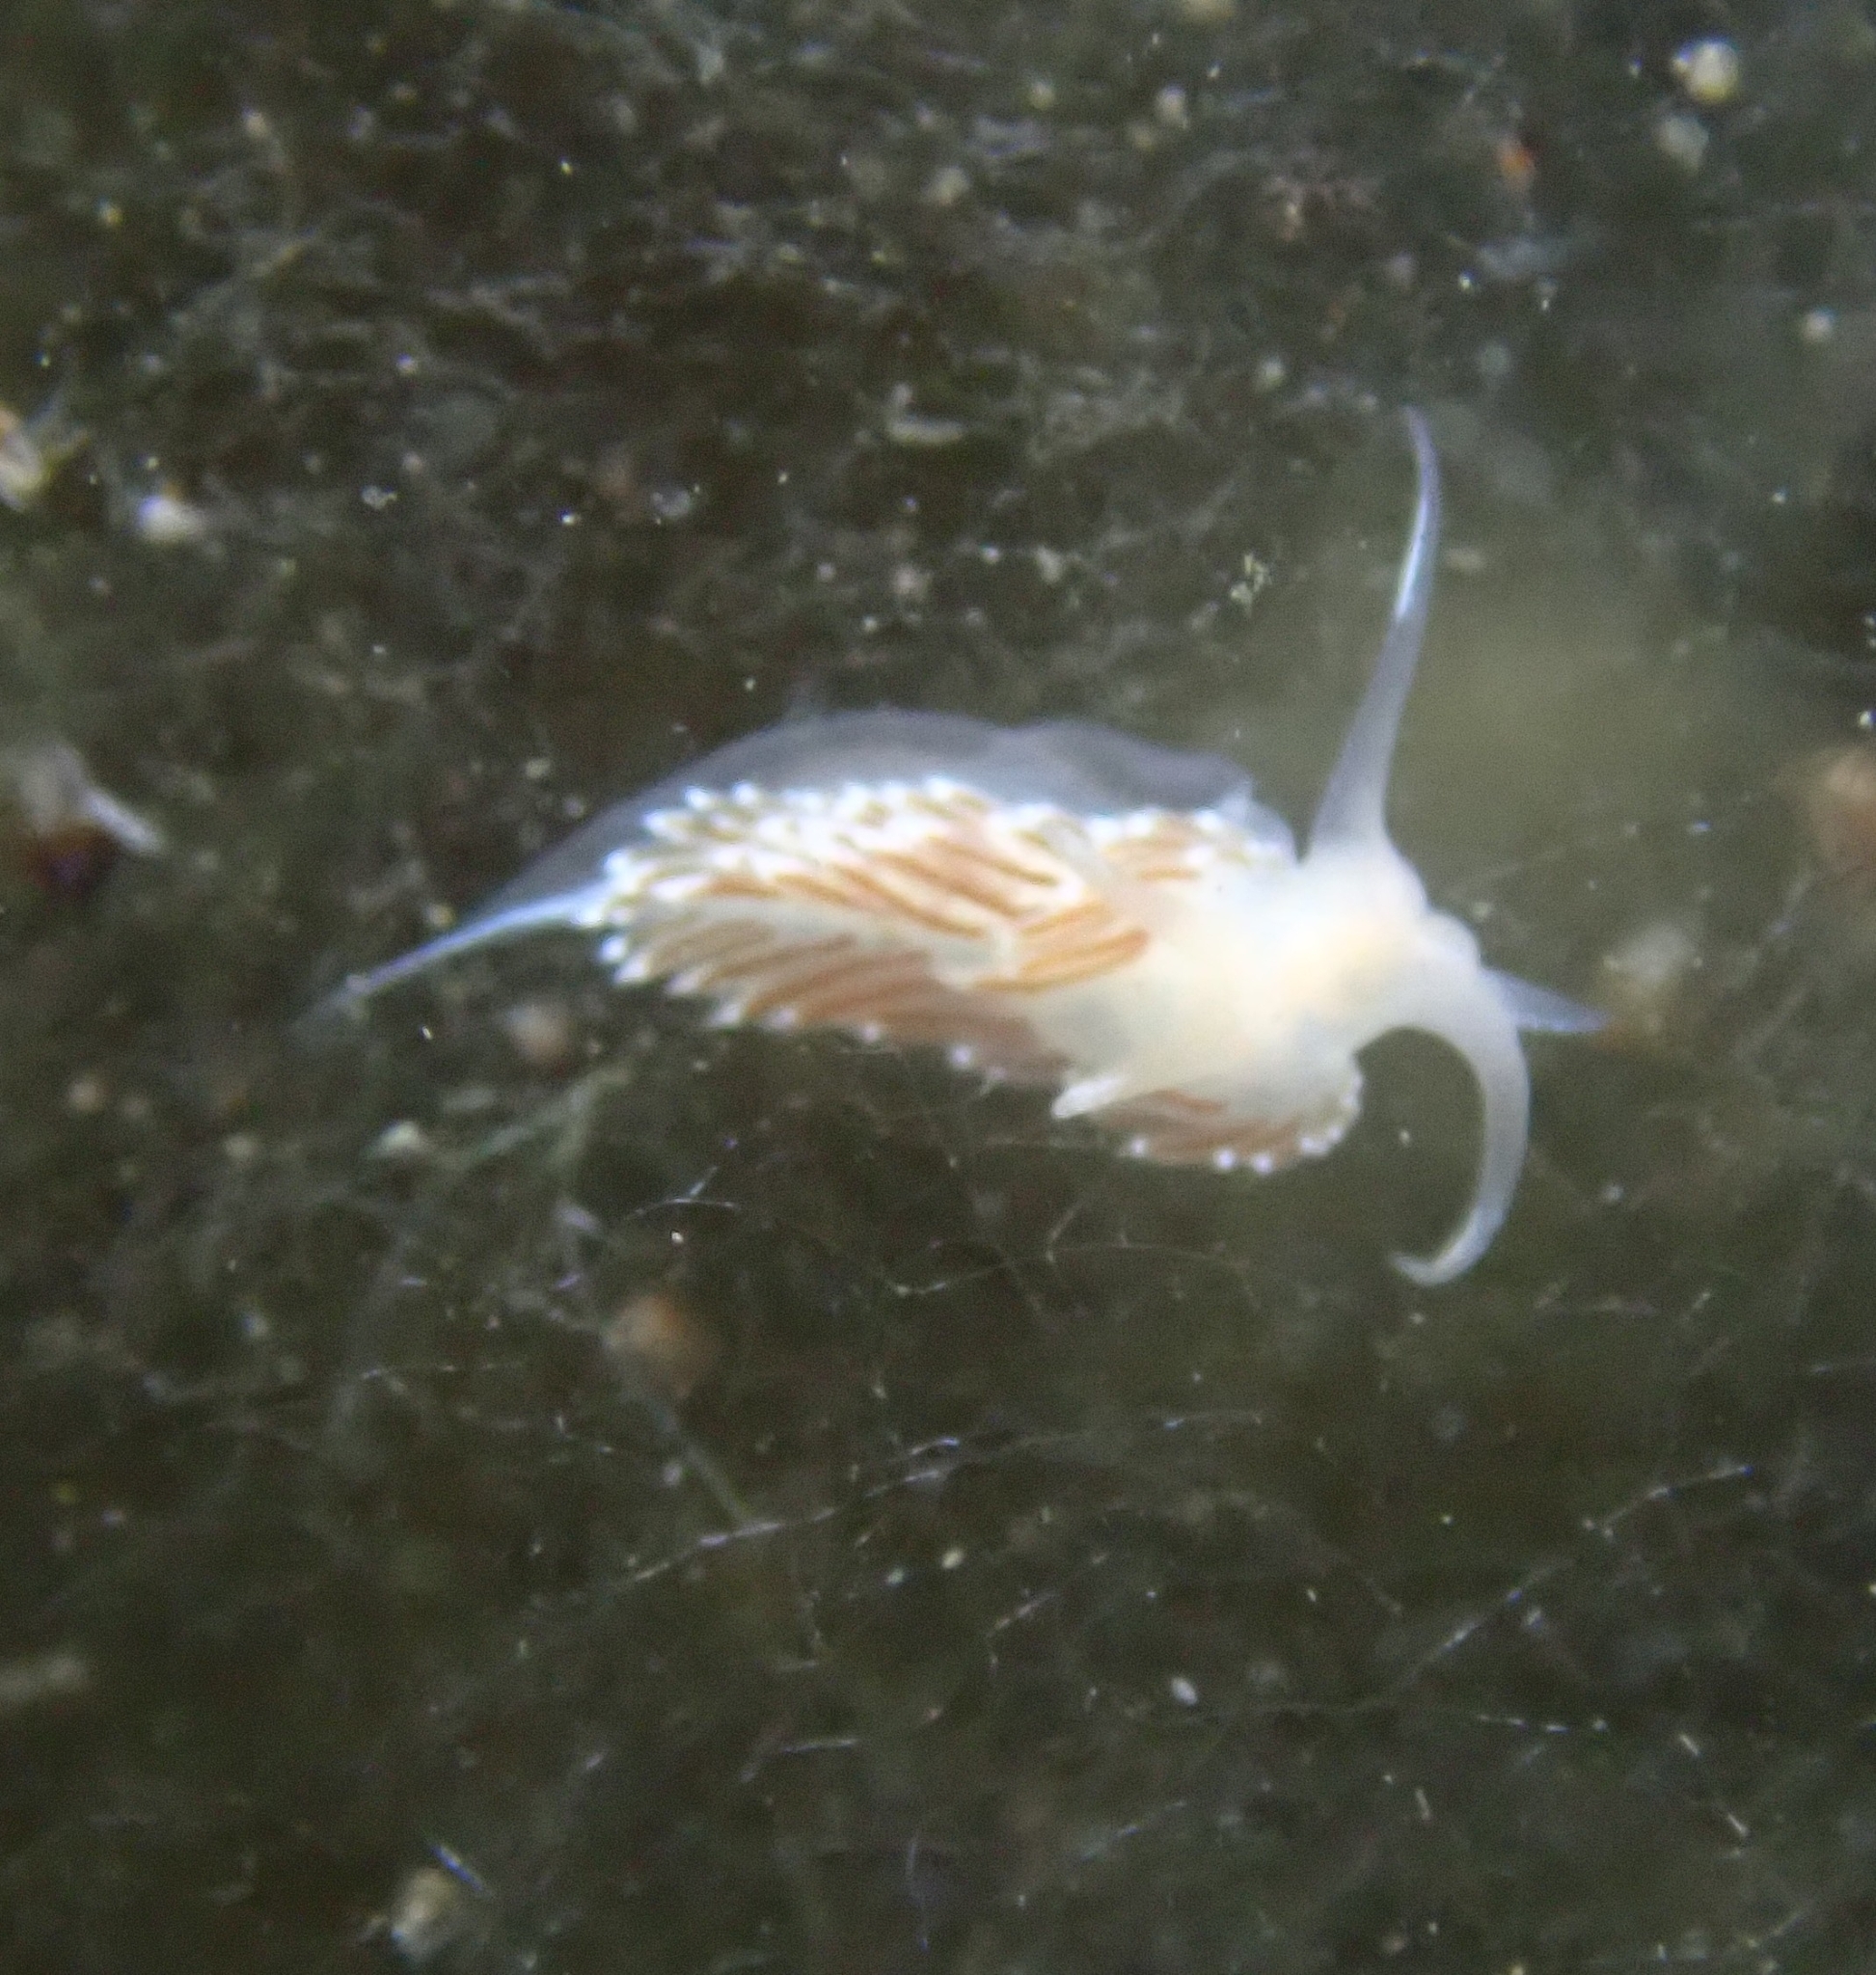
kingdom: Animalia
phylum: Mollusca
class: Gastropoda
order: Nudibranchia
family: Facelinidae
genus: Facelina
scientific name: Facelina bostoniensis
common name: Boston facelina
